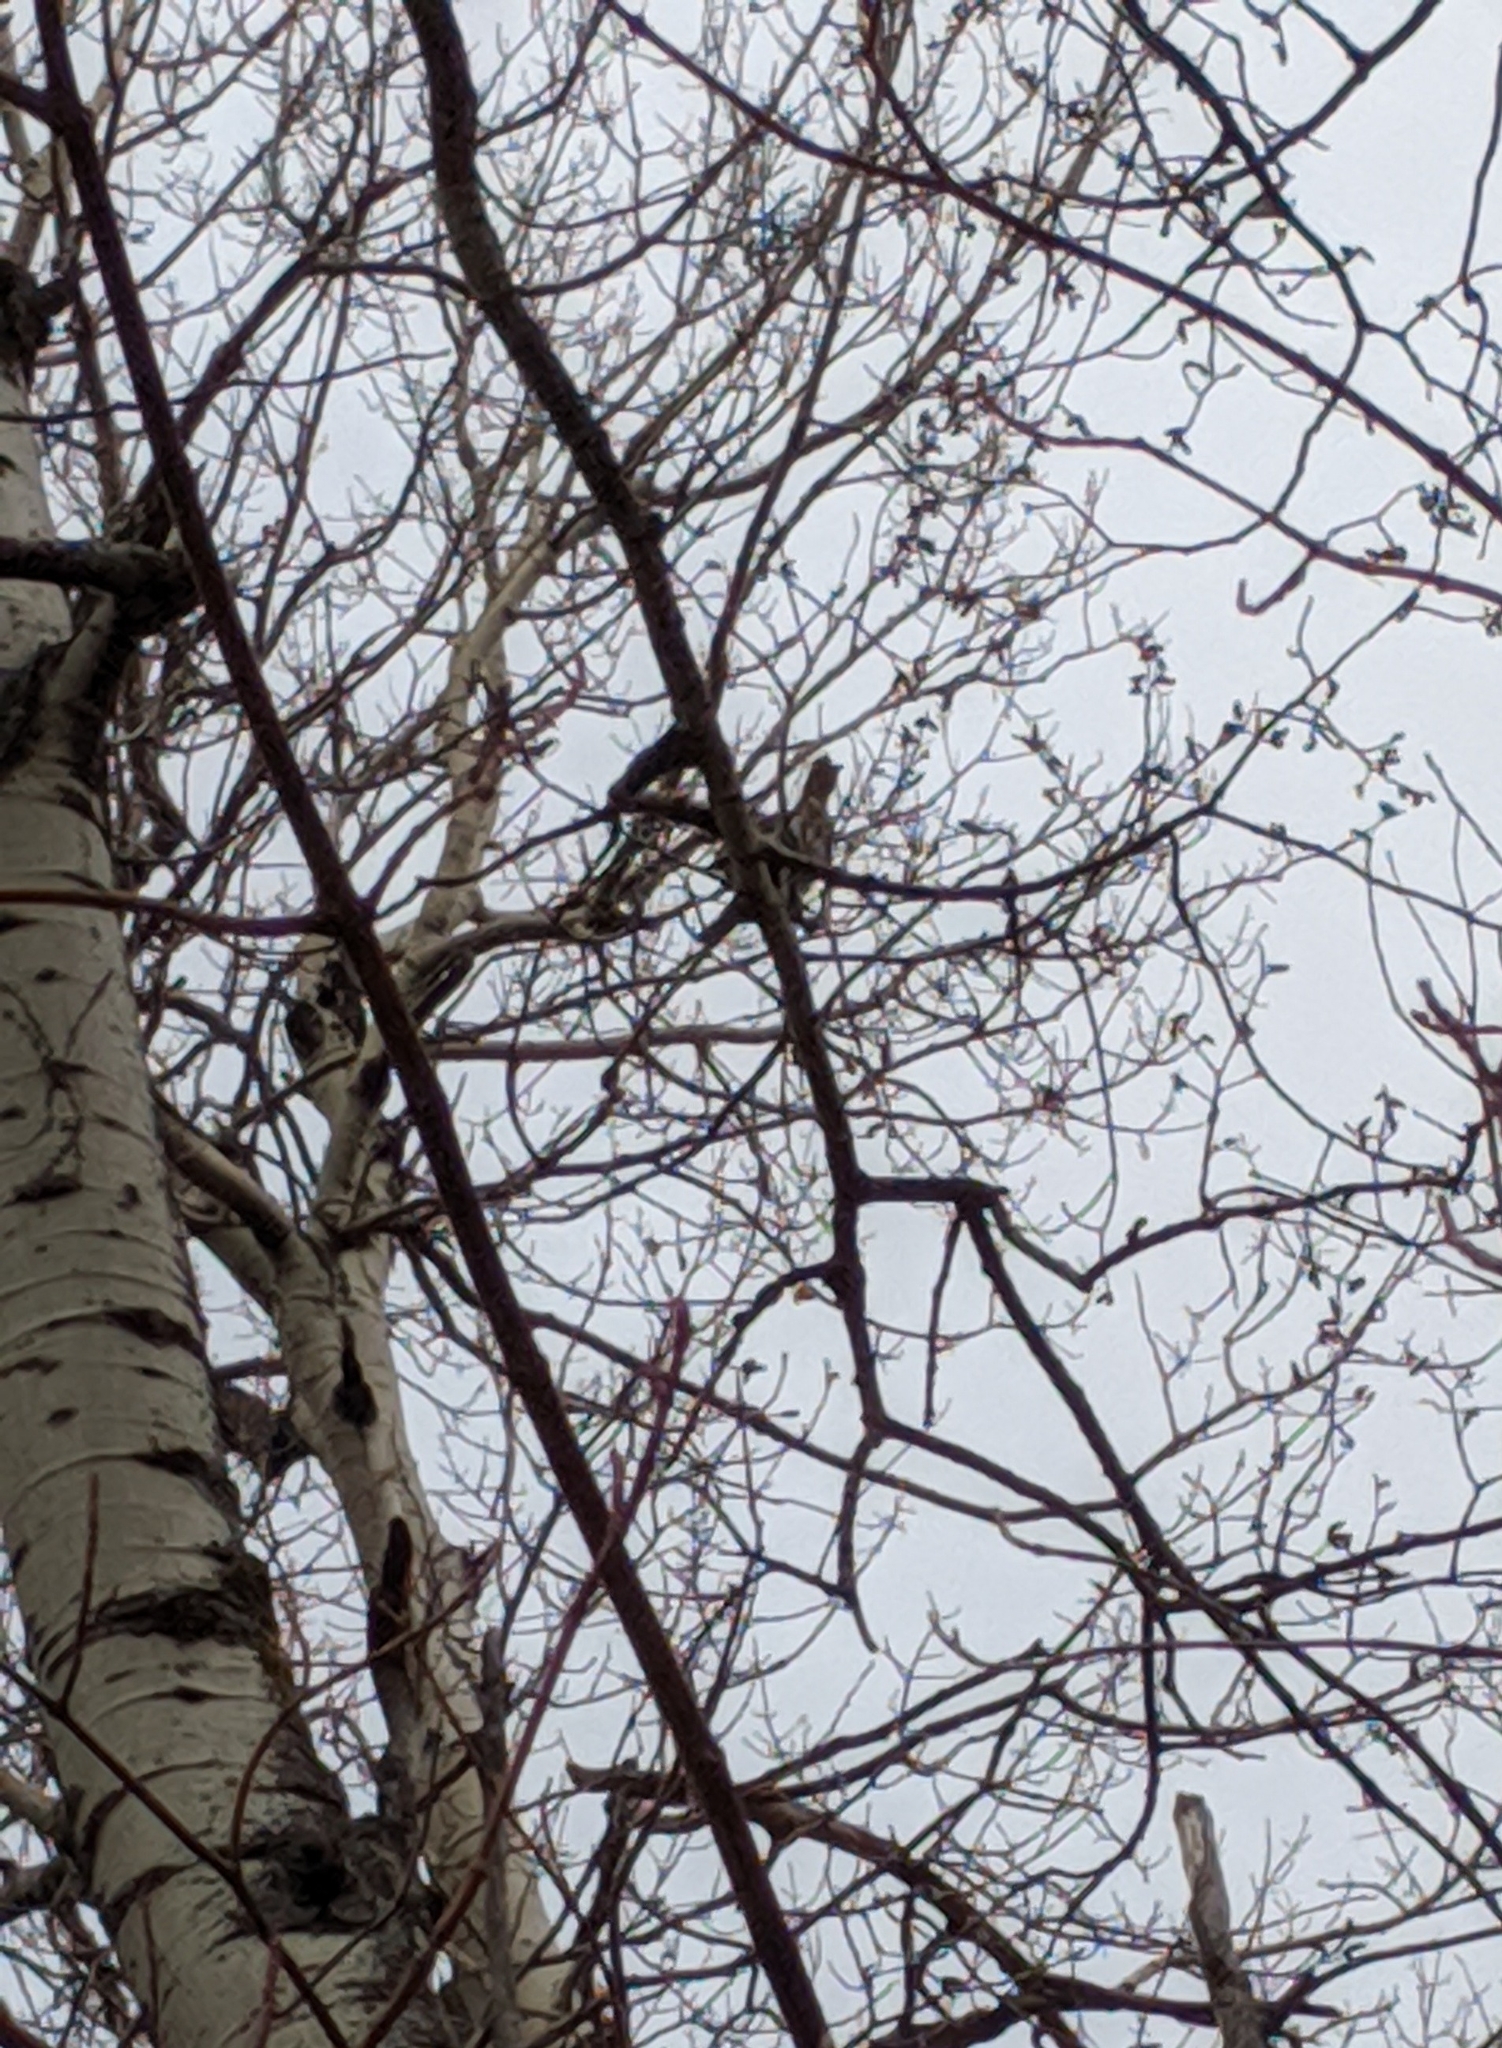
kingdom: Animalia
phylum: Chordata
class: Aves
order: Galliformes
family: Phasianidae
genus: Bonasa
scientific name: Bonasa umbellus
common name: Ruffed grouse
